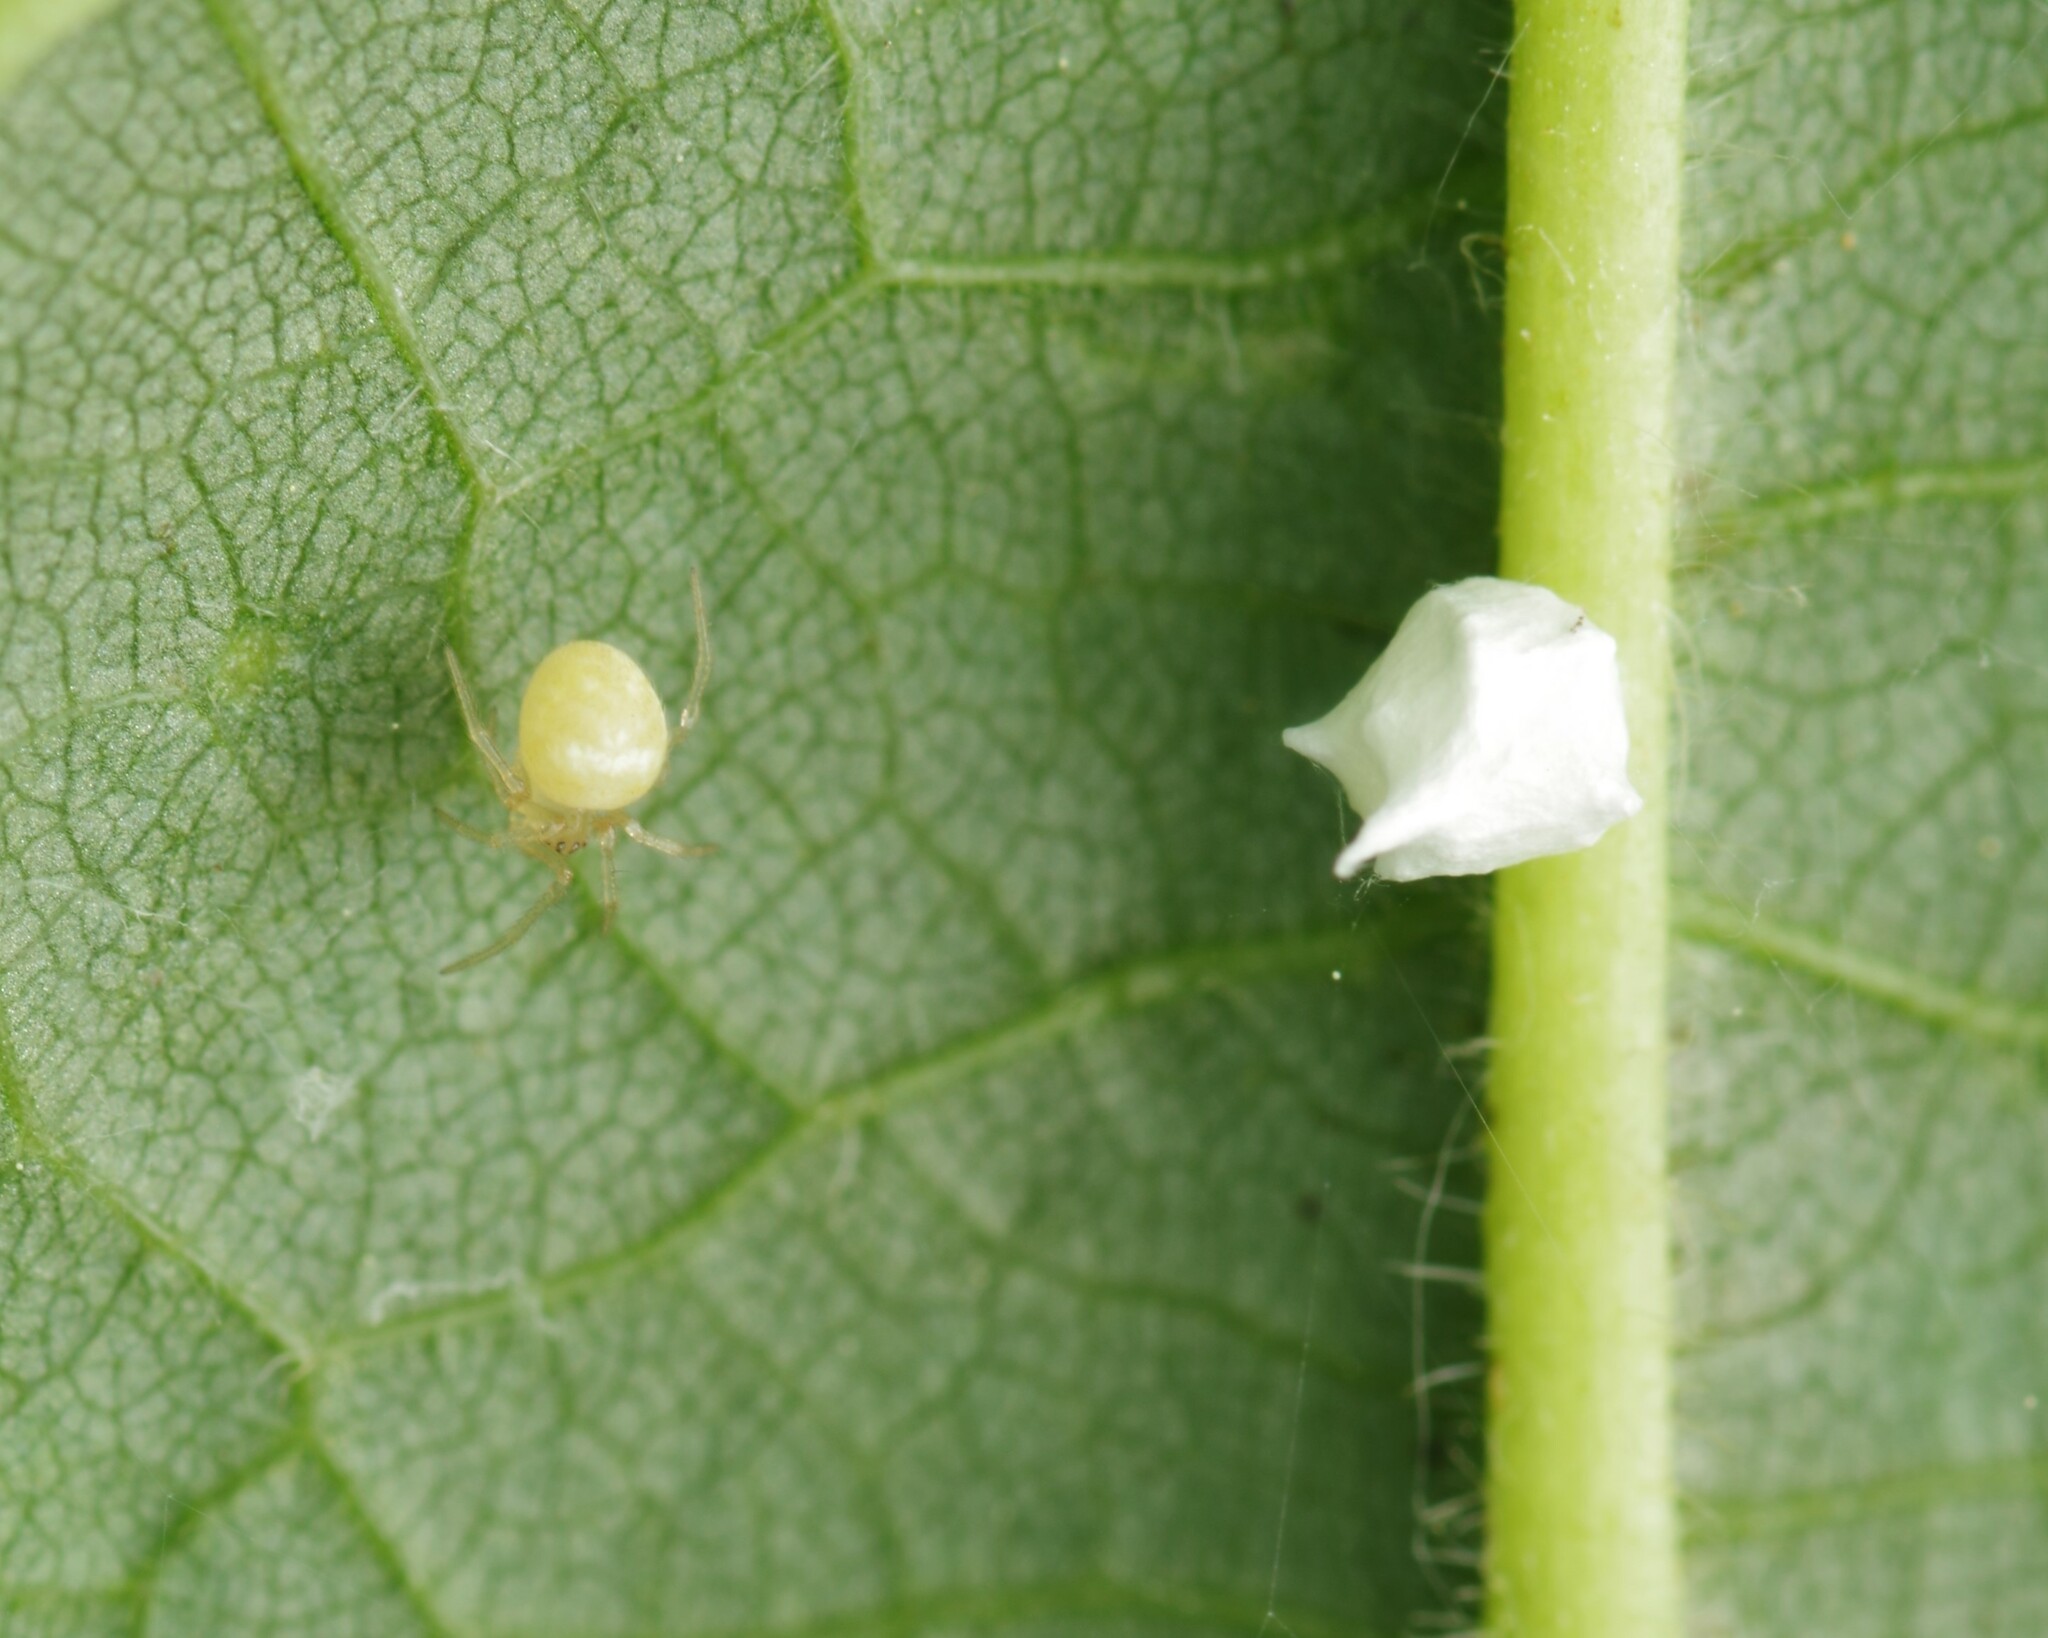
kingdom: Animalia
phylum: Arthropoda
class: Arachnida
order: Araneae
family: Theridiidae
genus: Paidiscura
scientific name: Paidiscura pallens
